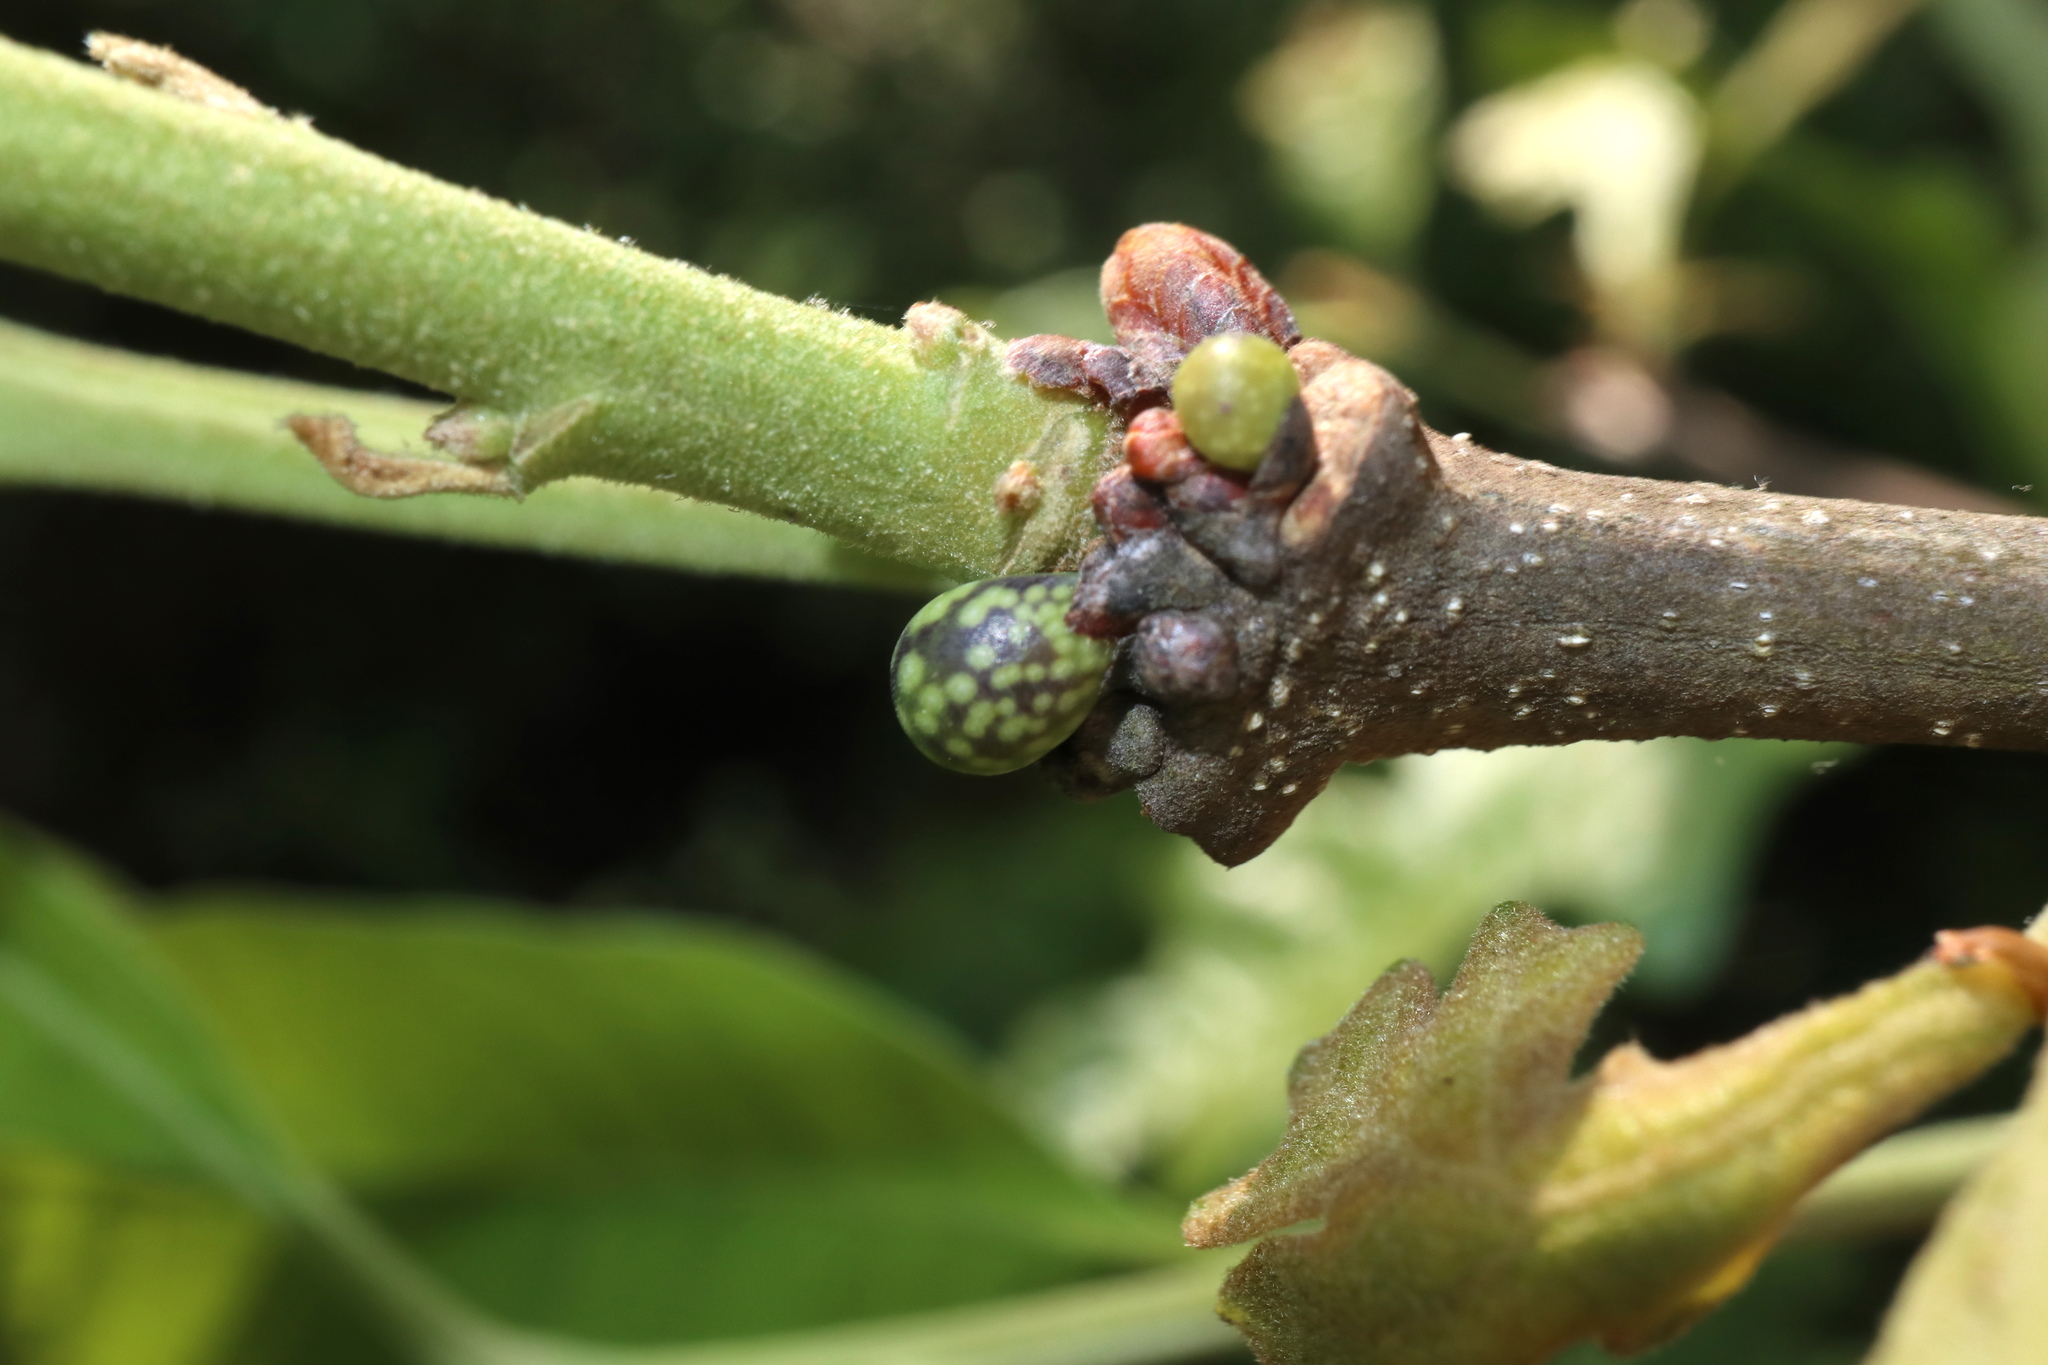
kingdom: Animalia
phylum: Arthropoda
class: Insecta
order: Hymenoptera
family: Cynipidae
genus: Andricus
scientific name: Andricus
